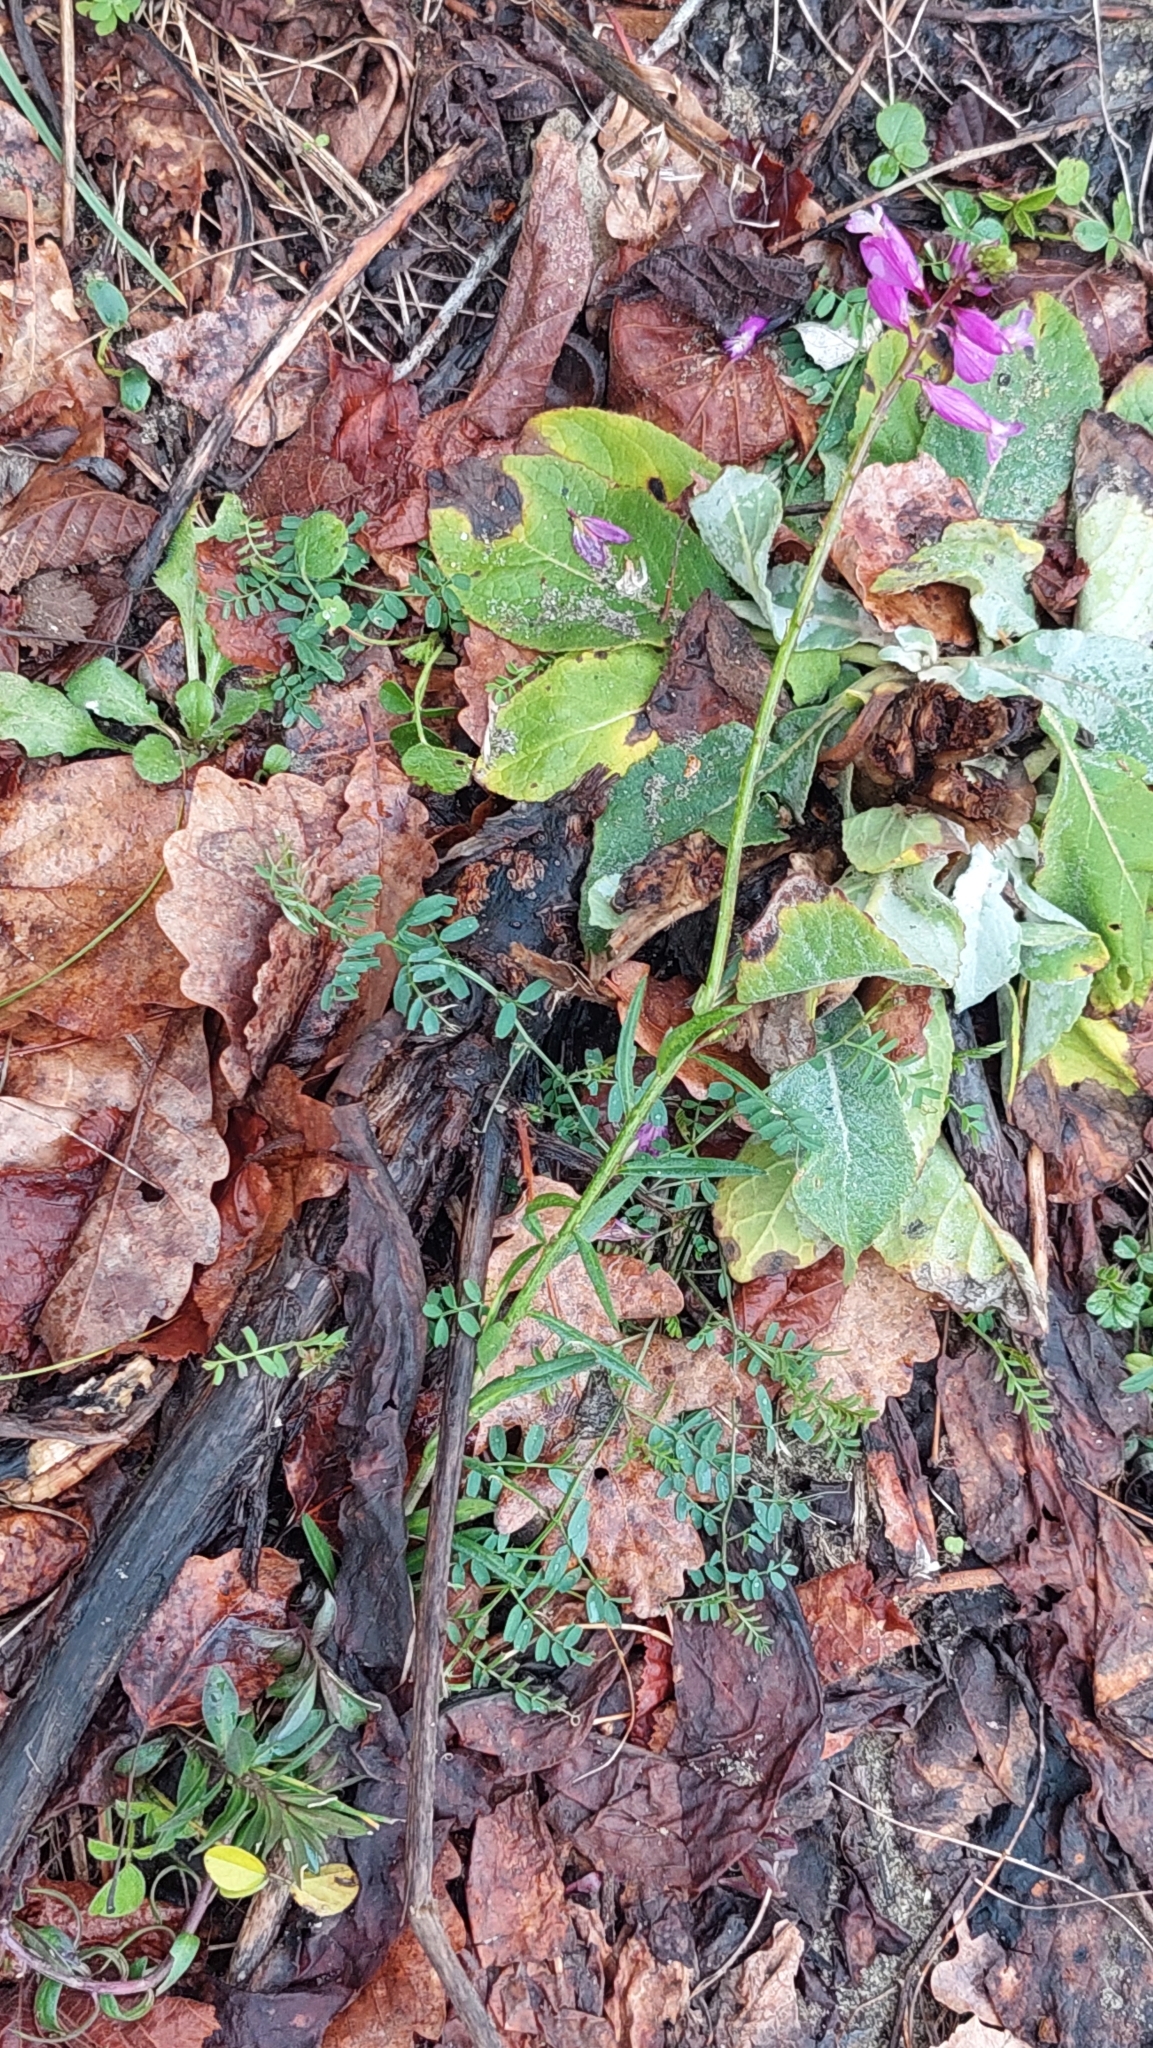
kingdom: Plantae
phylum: Tracheophyta
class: Magnoliopsida
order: Fabales
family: Polygalaceae
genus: Polygala
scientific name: Polygala major
